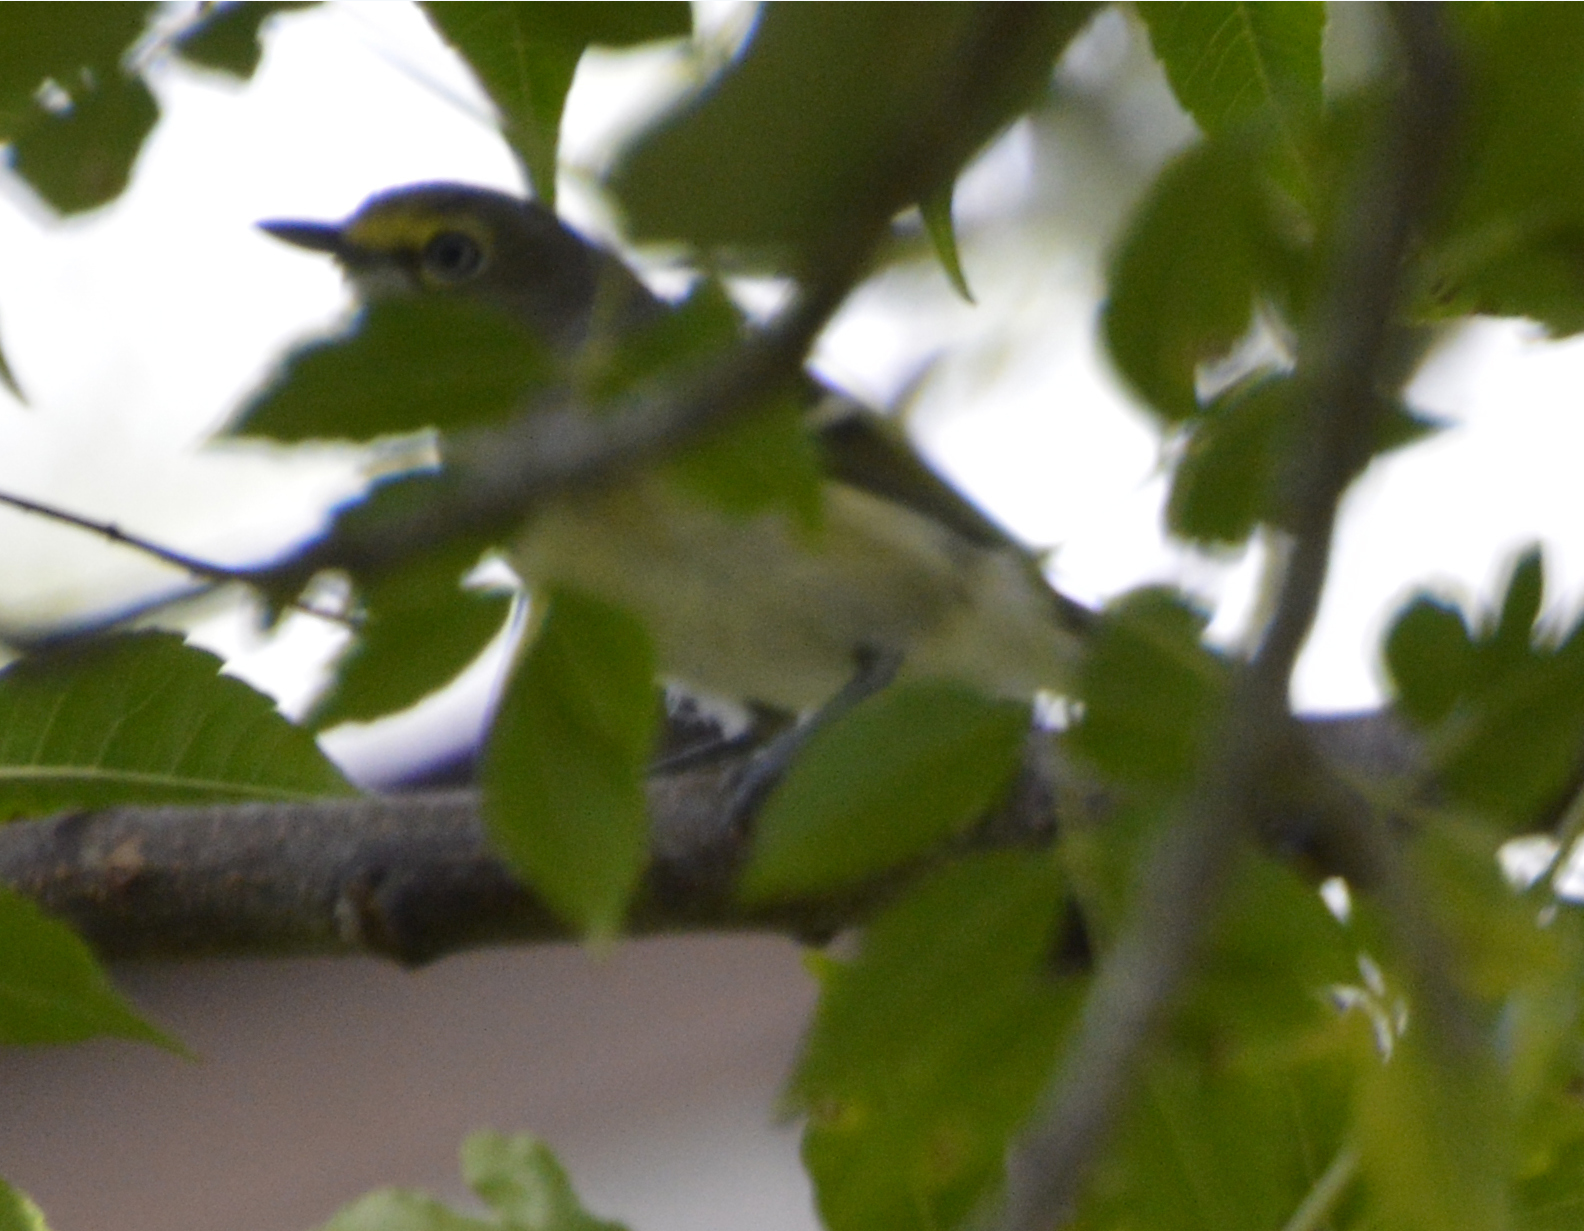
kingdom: Animalia
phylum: Chordata
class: Aves
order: Passeriformes
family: Vireonidae
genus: Vireo
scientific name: Vireo griseus
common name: White-eyed vireo
